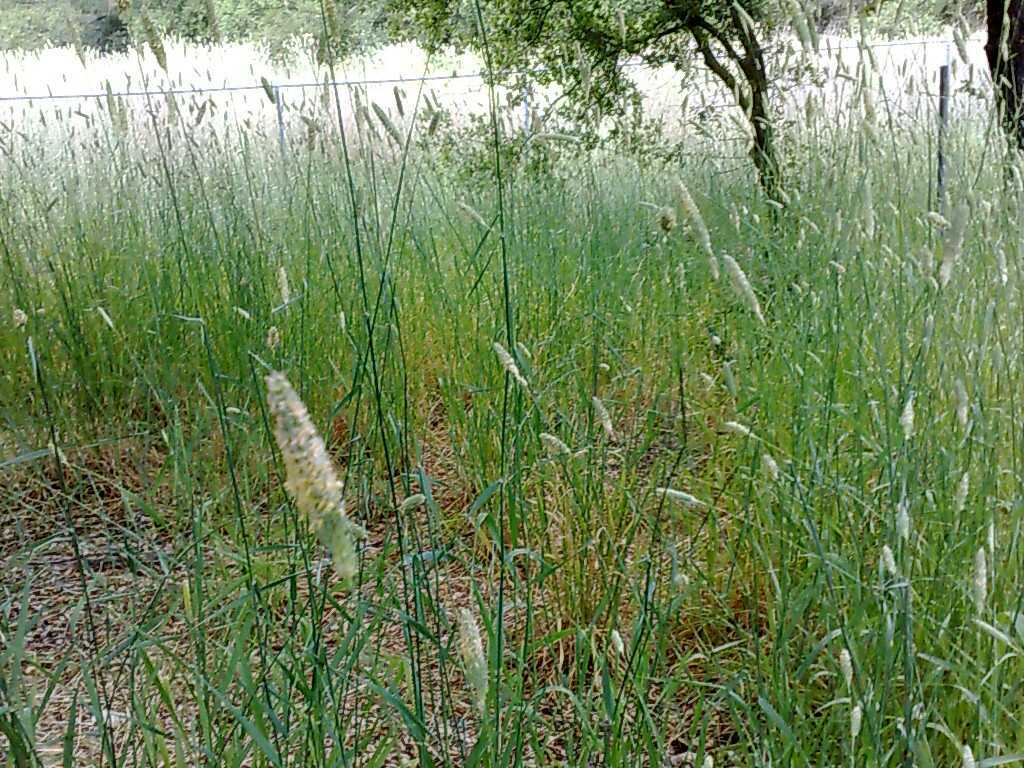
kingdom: Plantae
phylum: Tracheophyta
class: Magnoliopsida
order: Fagales
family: Fagaceae
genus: Quercus
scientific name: Quercus agrifolia
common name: California live oak
